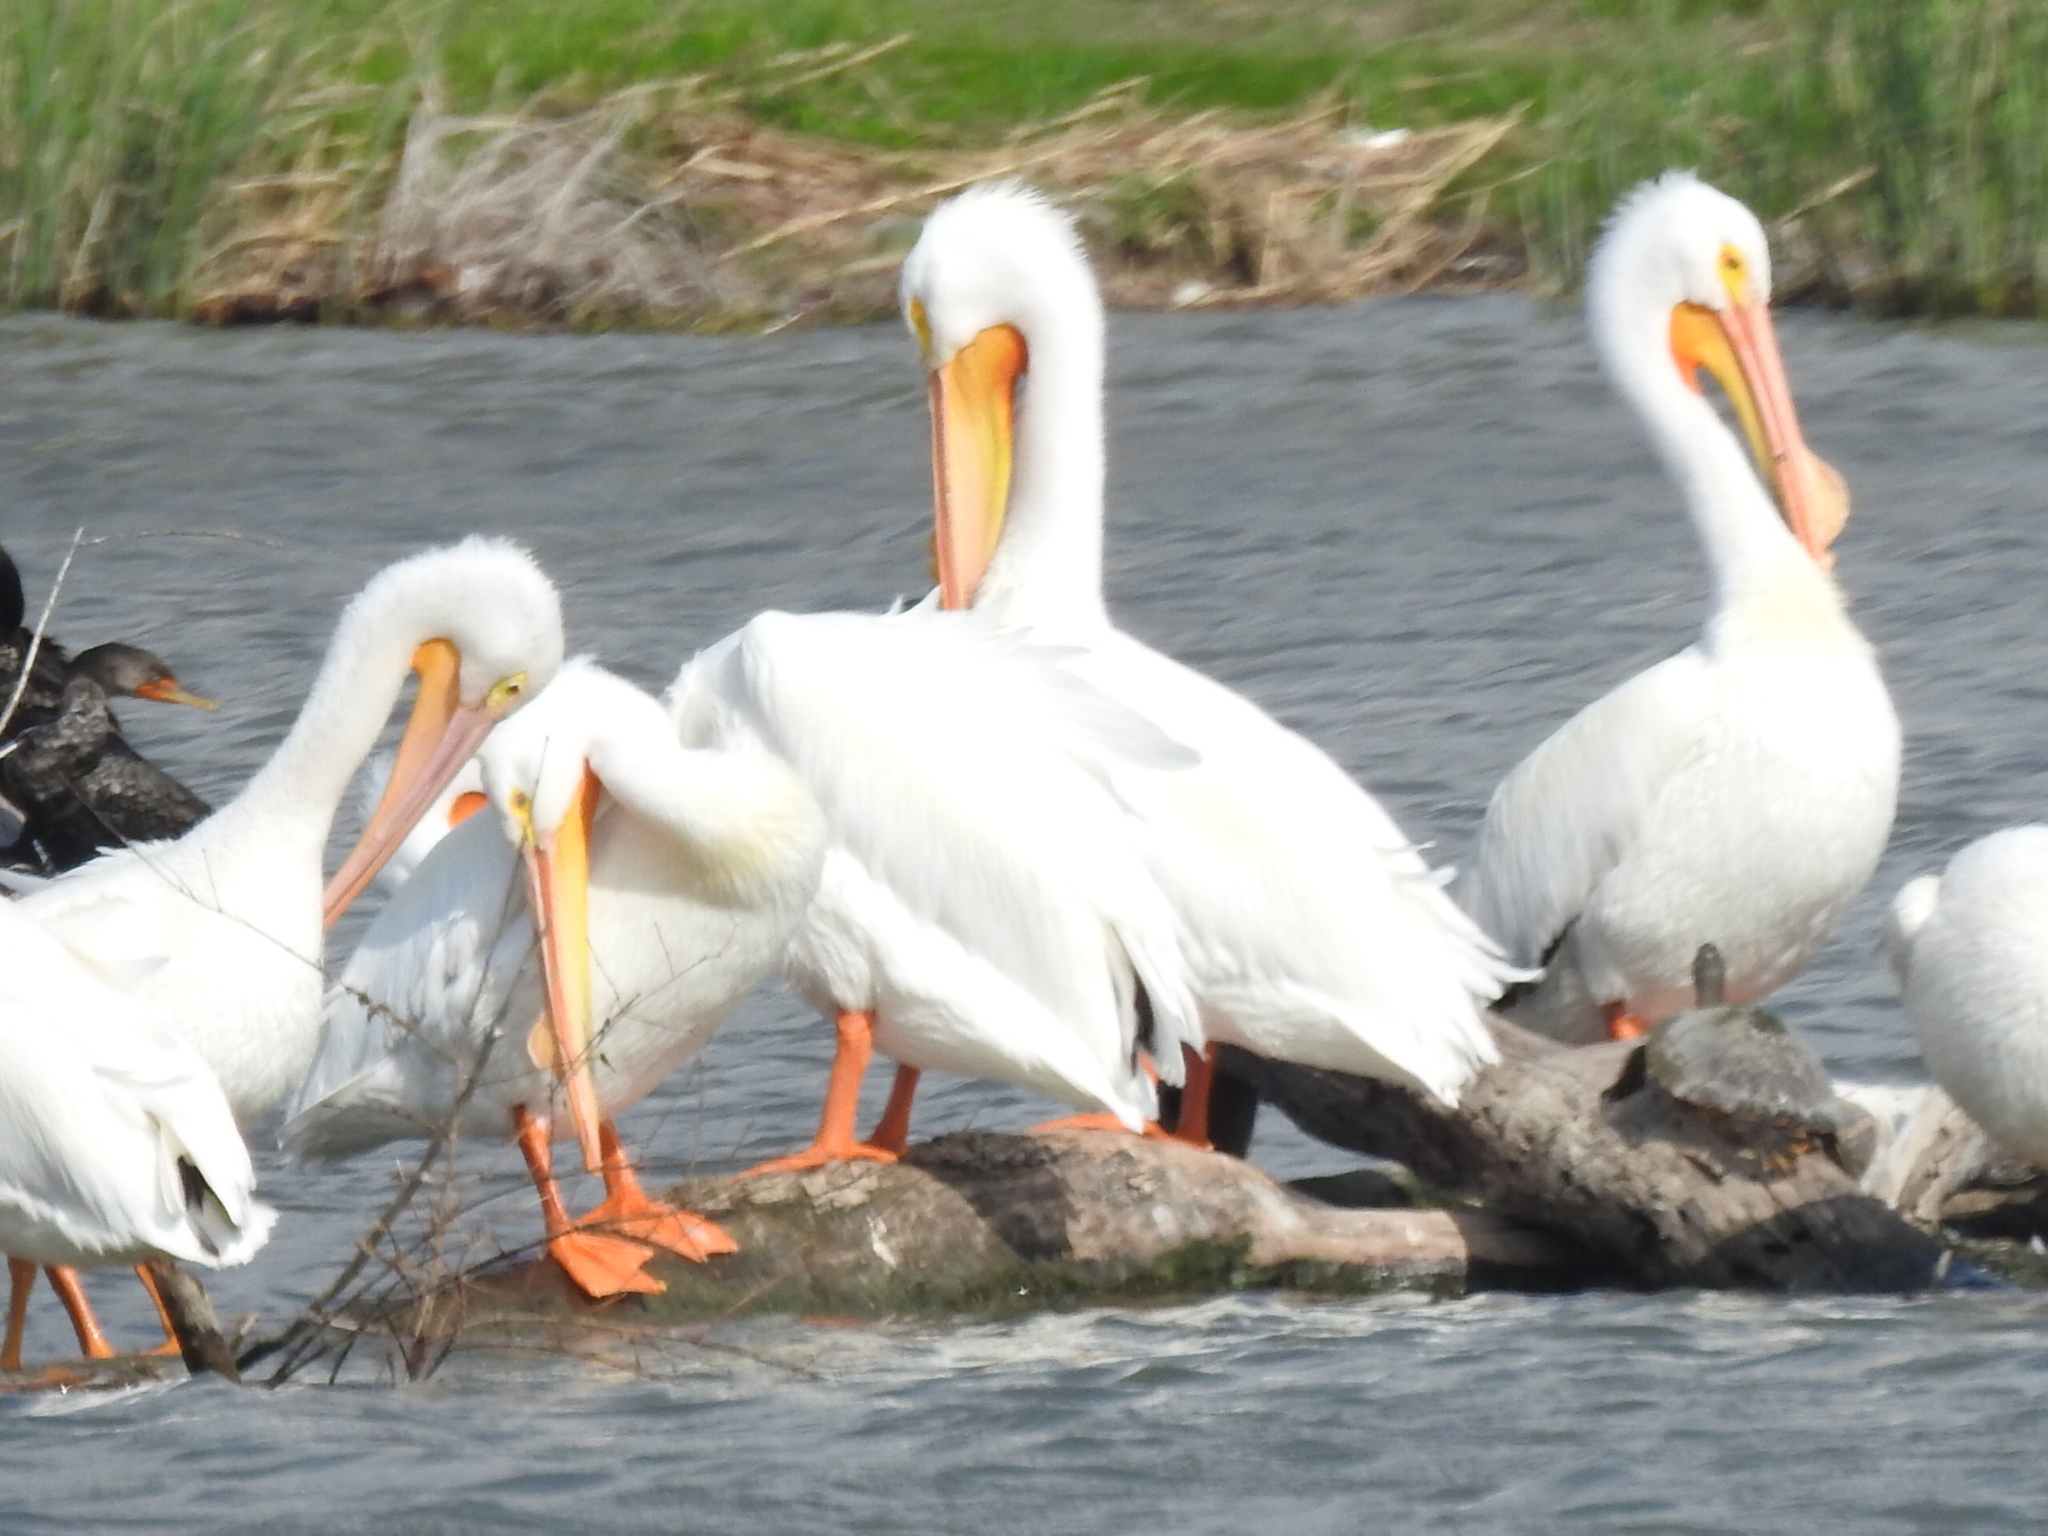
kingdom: Animalia
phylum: Chordata
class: Aves
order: Pelecaniformes
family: Pelecanidae
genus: Pelecanus
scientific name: Pelecanus erythrorhynchos
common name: American white pelican
